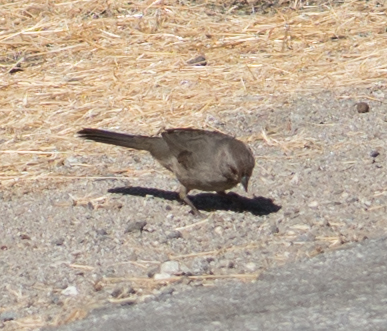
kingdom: Animalia
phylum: Chordata
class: Aves
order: Passeriformes
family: Passerellidae
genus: Melozone
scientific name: Melozone crissalis
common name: California towhee
